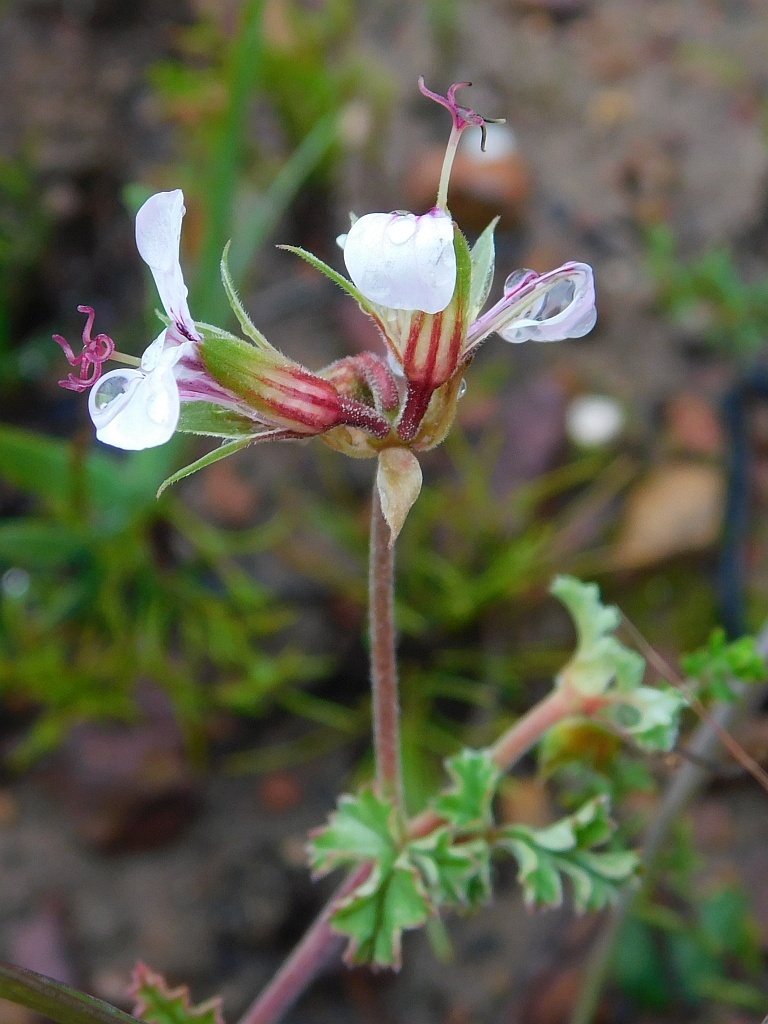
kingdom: Plantae
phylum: Tracheophyta
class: Magnoliopsida
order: Geraniales
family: Geraniaceae
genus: Pelargonium
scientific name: Pelargonium candicans
